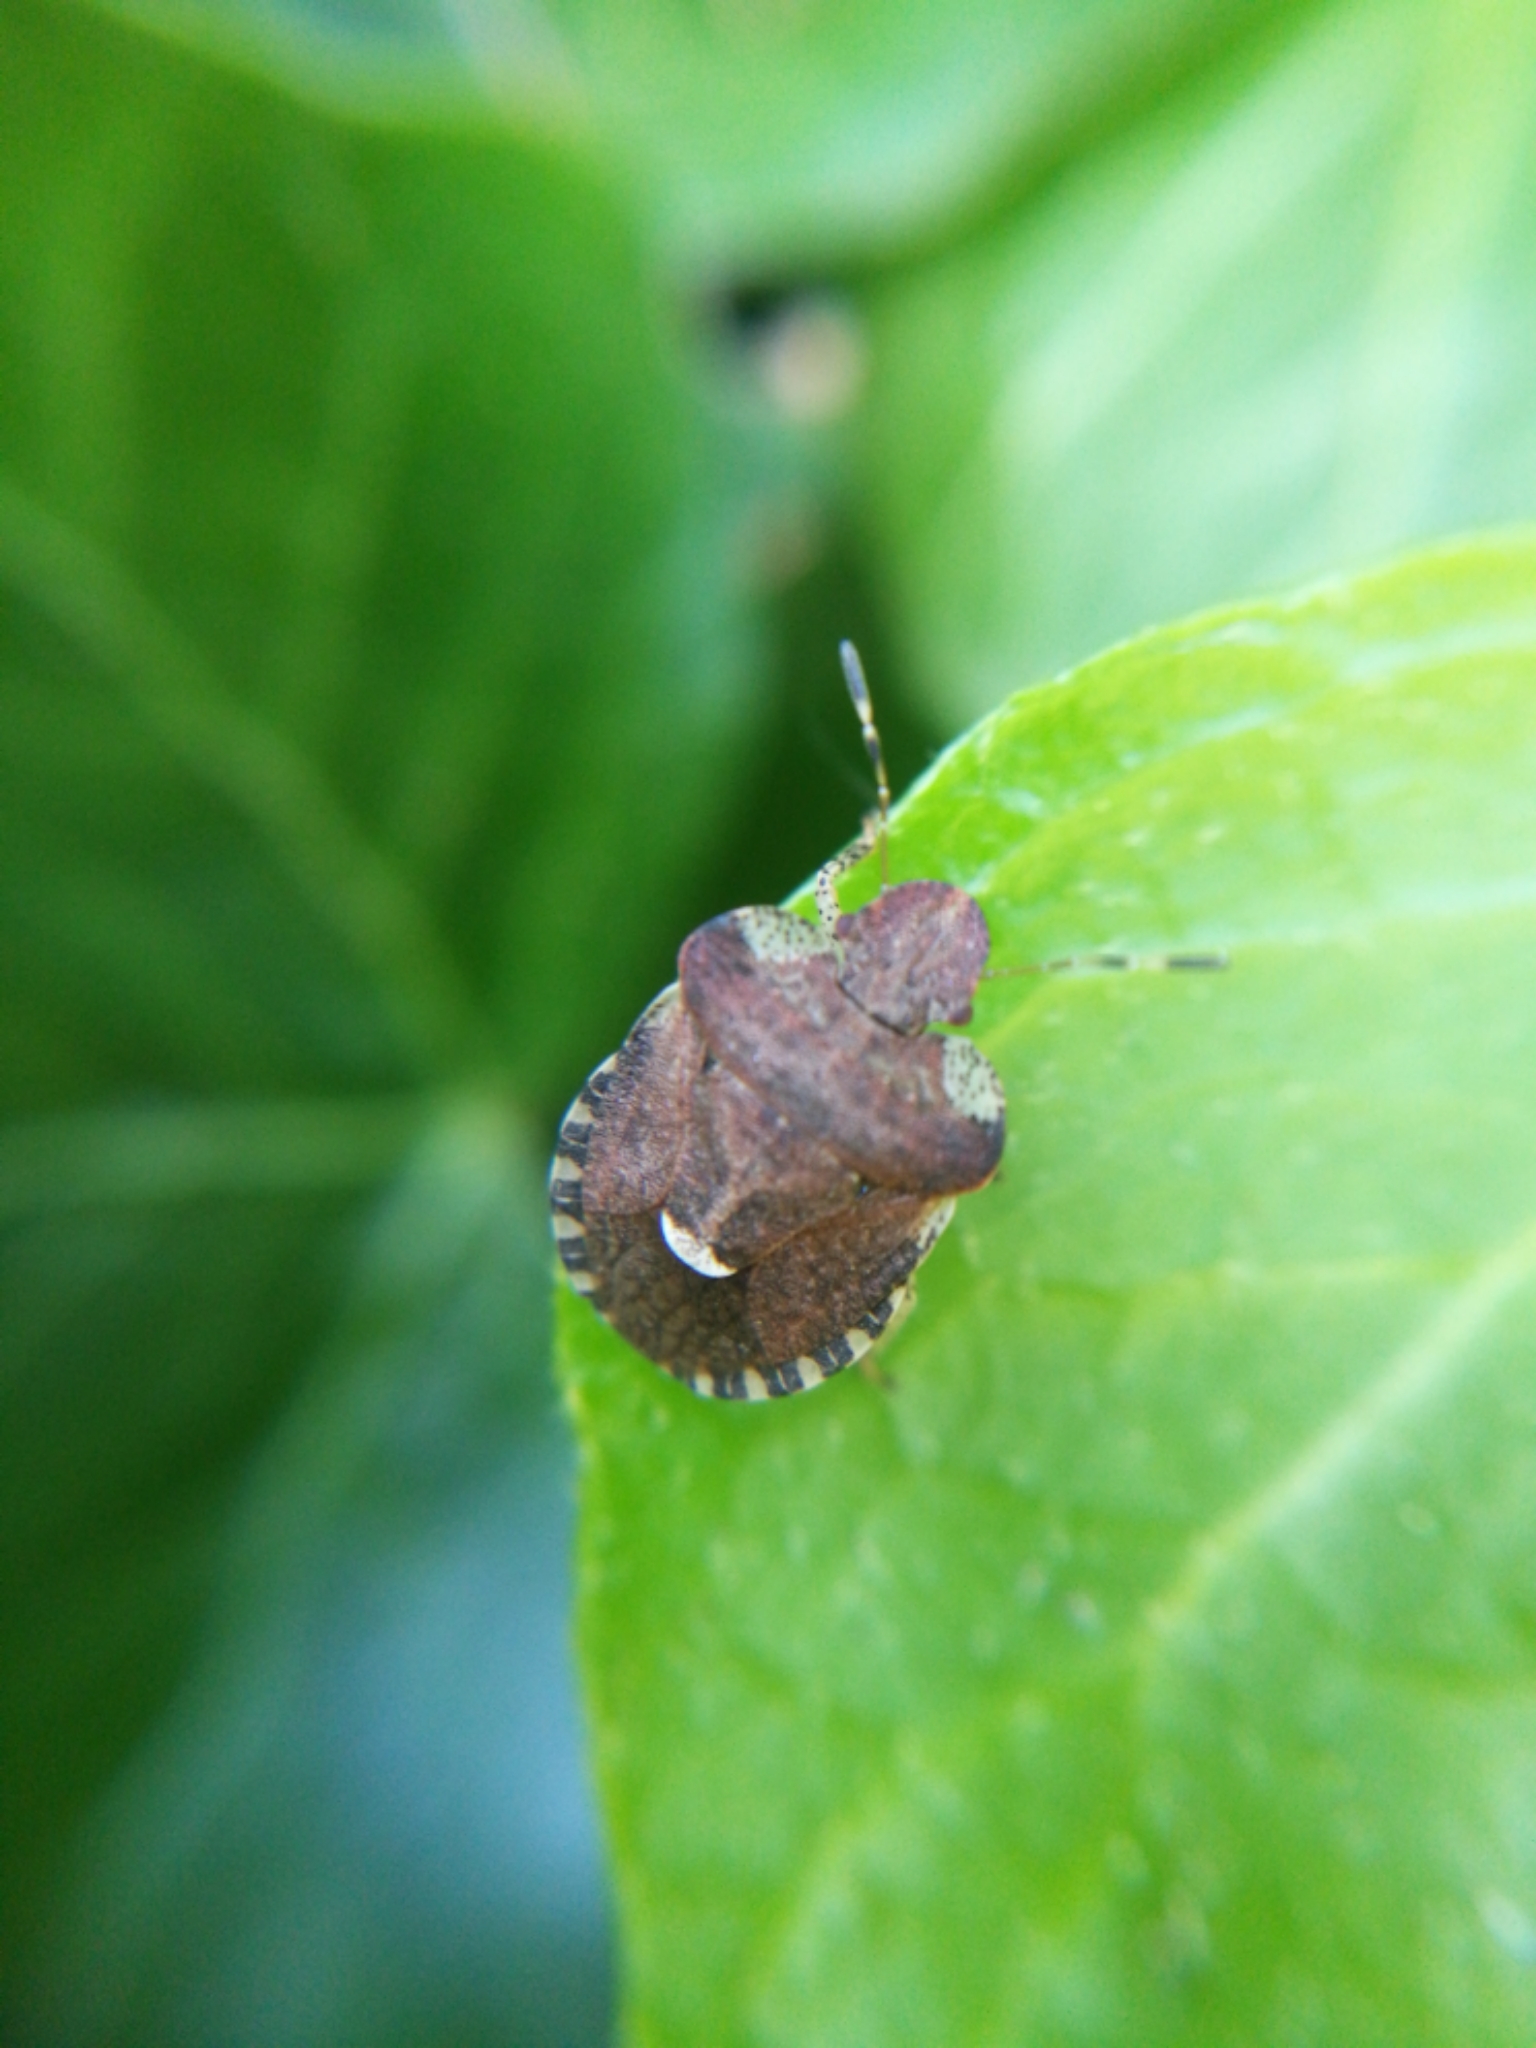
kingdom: Animalia
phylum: Arthropoda
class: Insecta
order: Hemiptera
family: Pentatomidae
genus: Dyroderes
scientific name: Dyroderes umbraculatus
